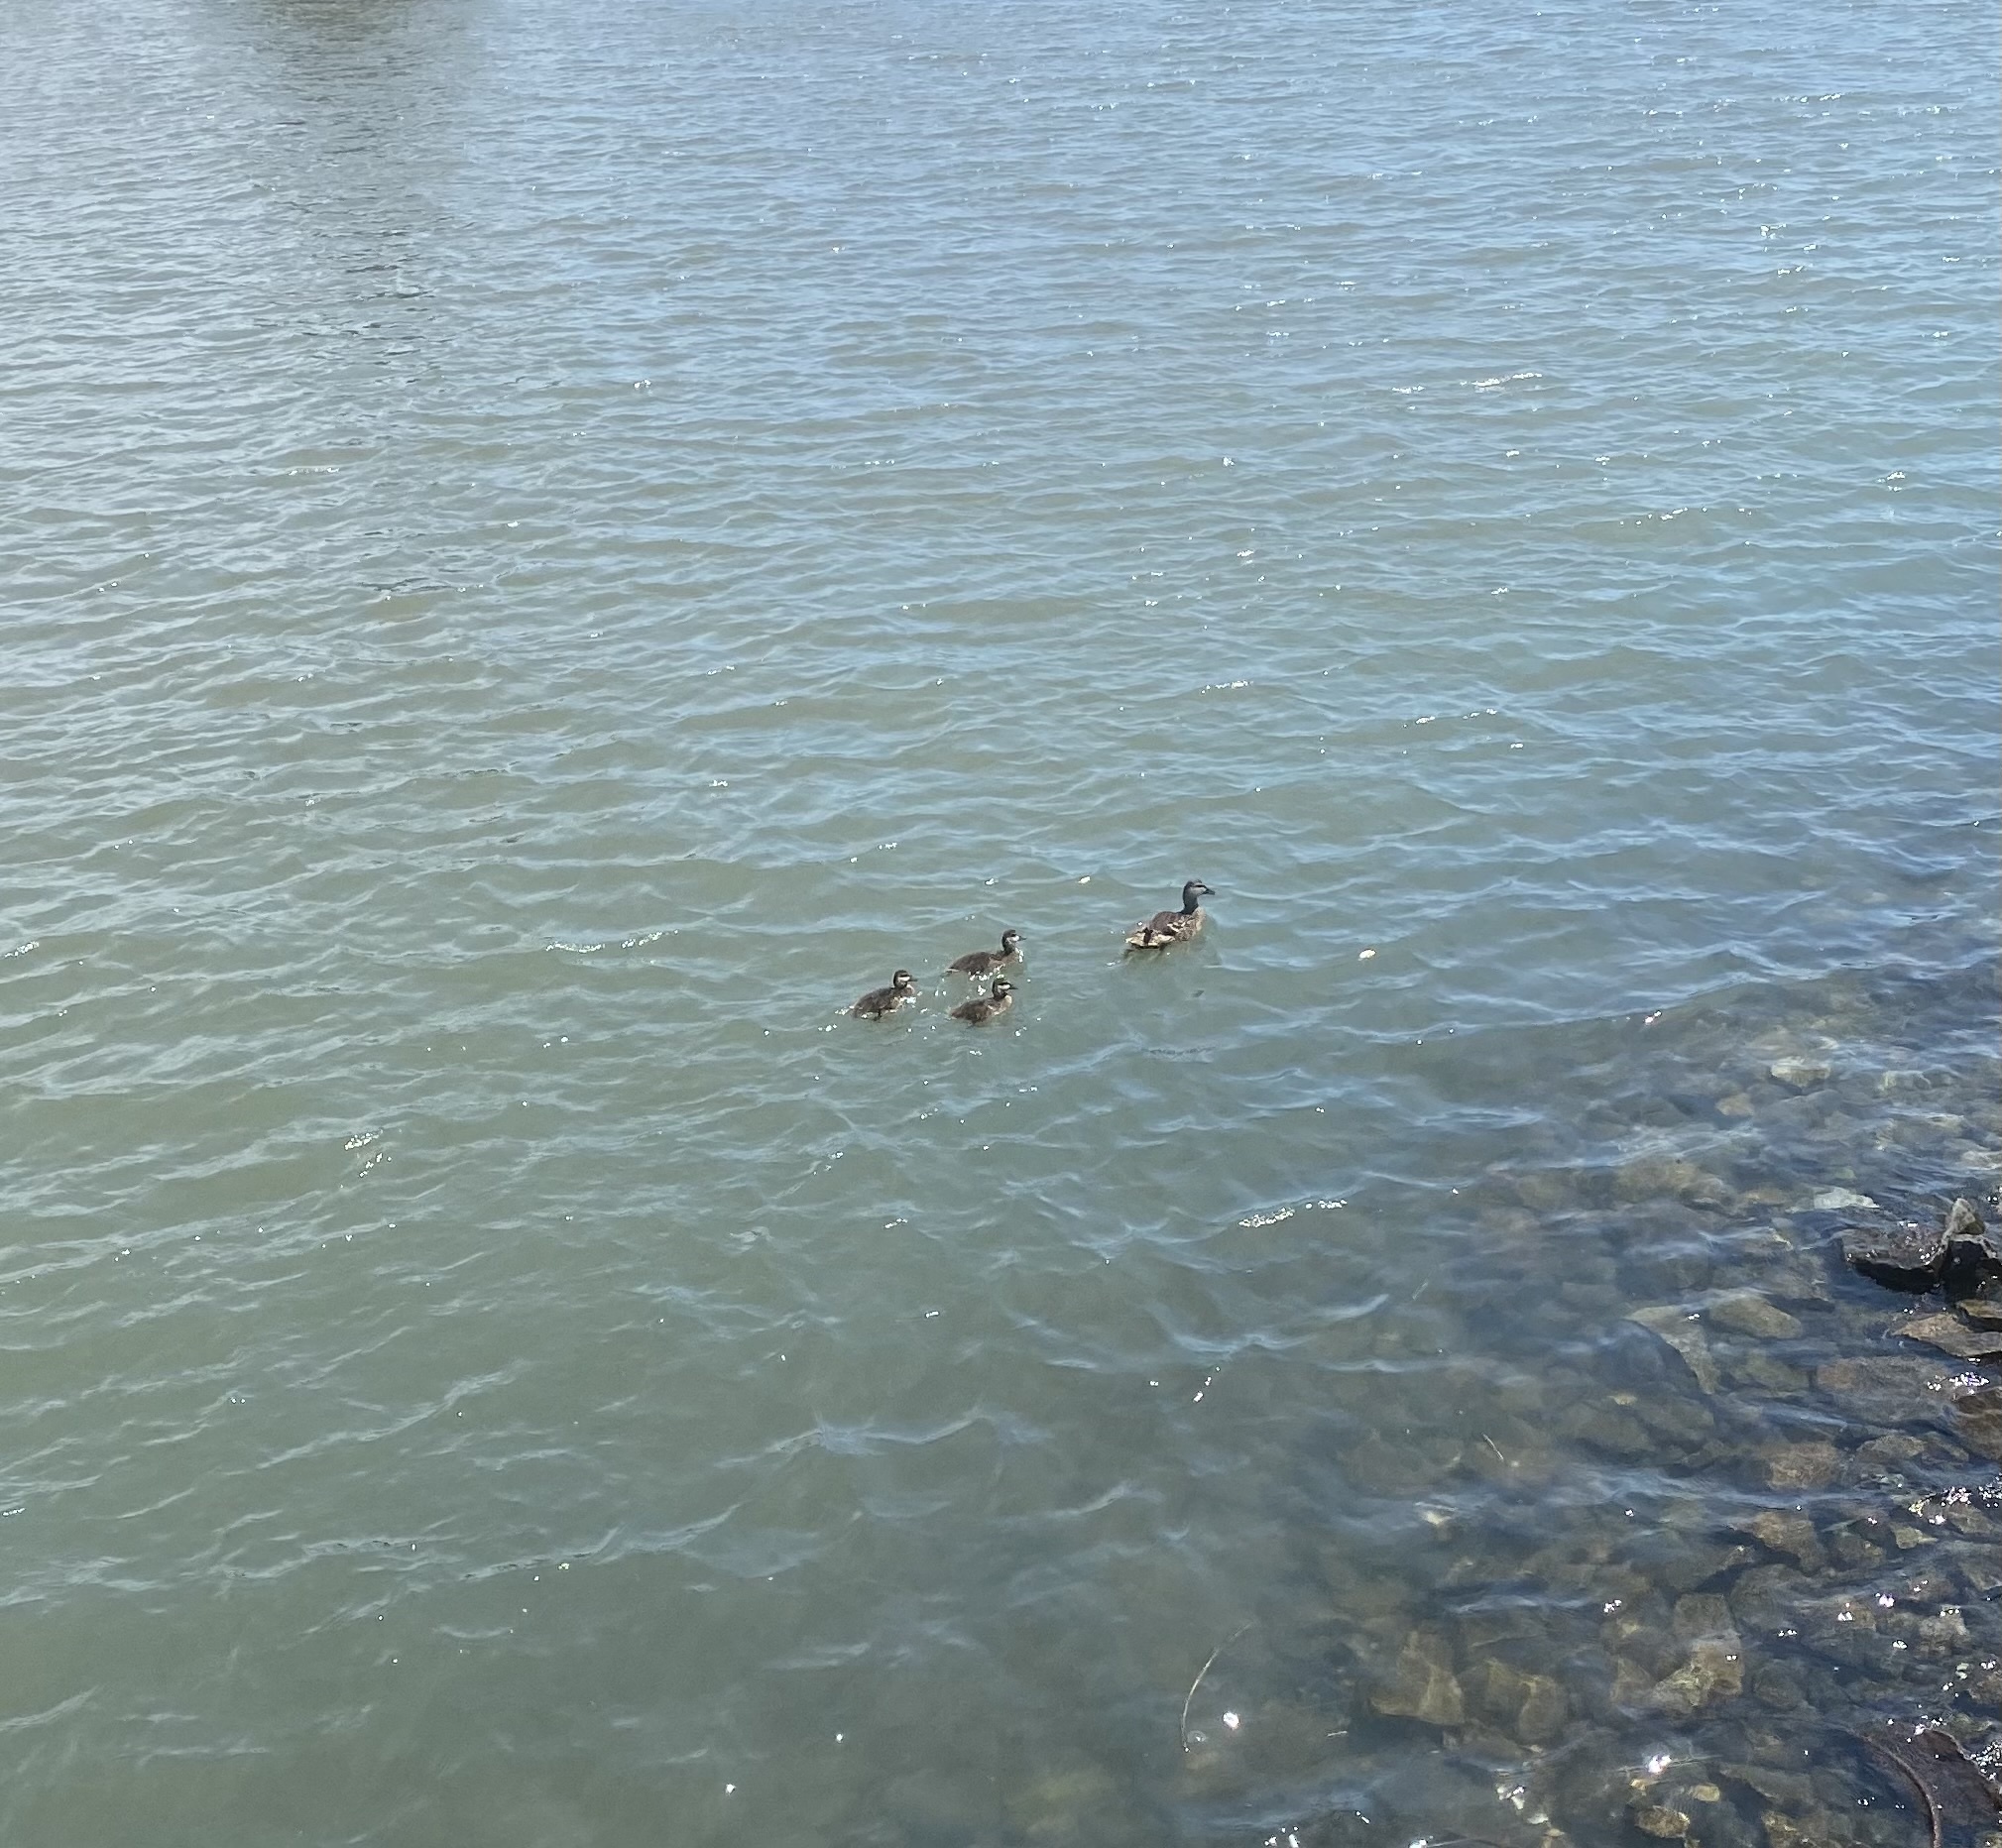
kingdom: Animalia
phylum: Chordata
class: Aves
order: Anseriformes
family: Anatidae
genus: Anas
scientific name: Anas platyrhynchos
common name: Mallard
